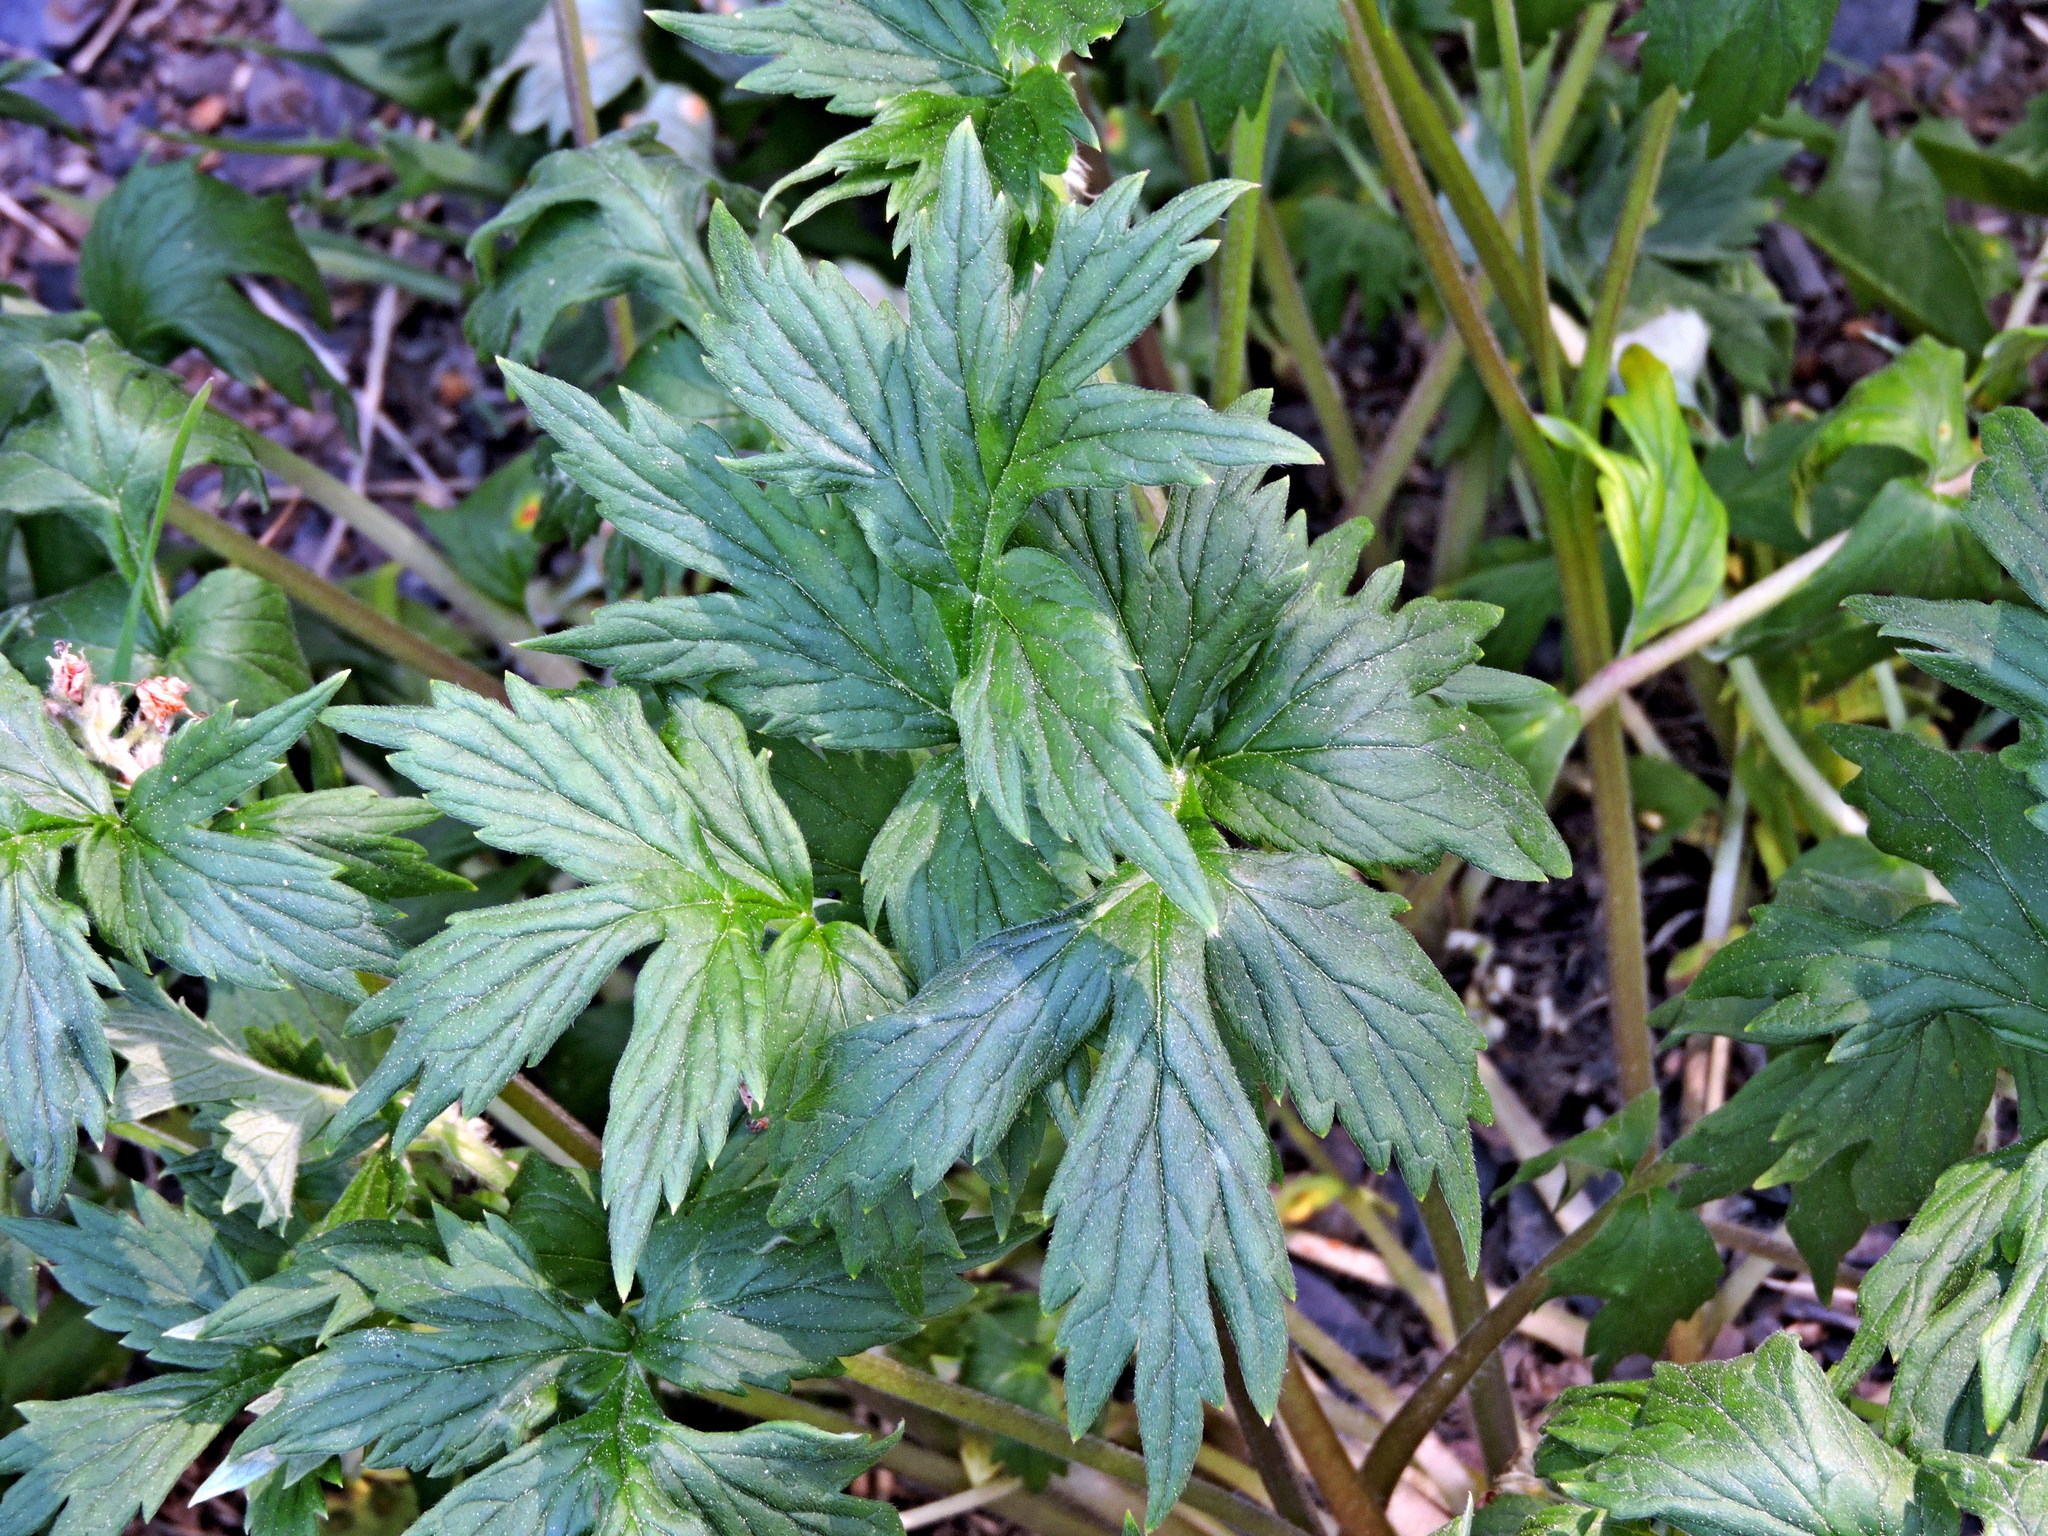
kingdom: Plantae
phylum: Tracheophyta
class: Magnoliopsida
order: Boraginales
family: Hydrophyllaceae
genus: Hydrophyllum
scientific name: Hydrophyllum fendleri
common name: Fendler's waterleaf
